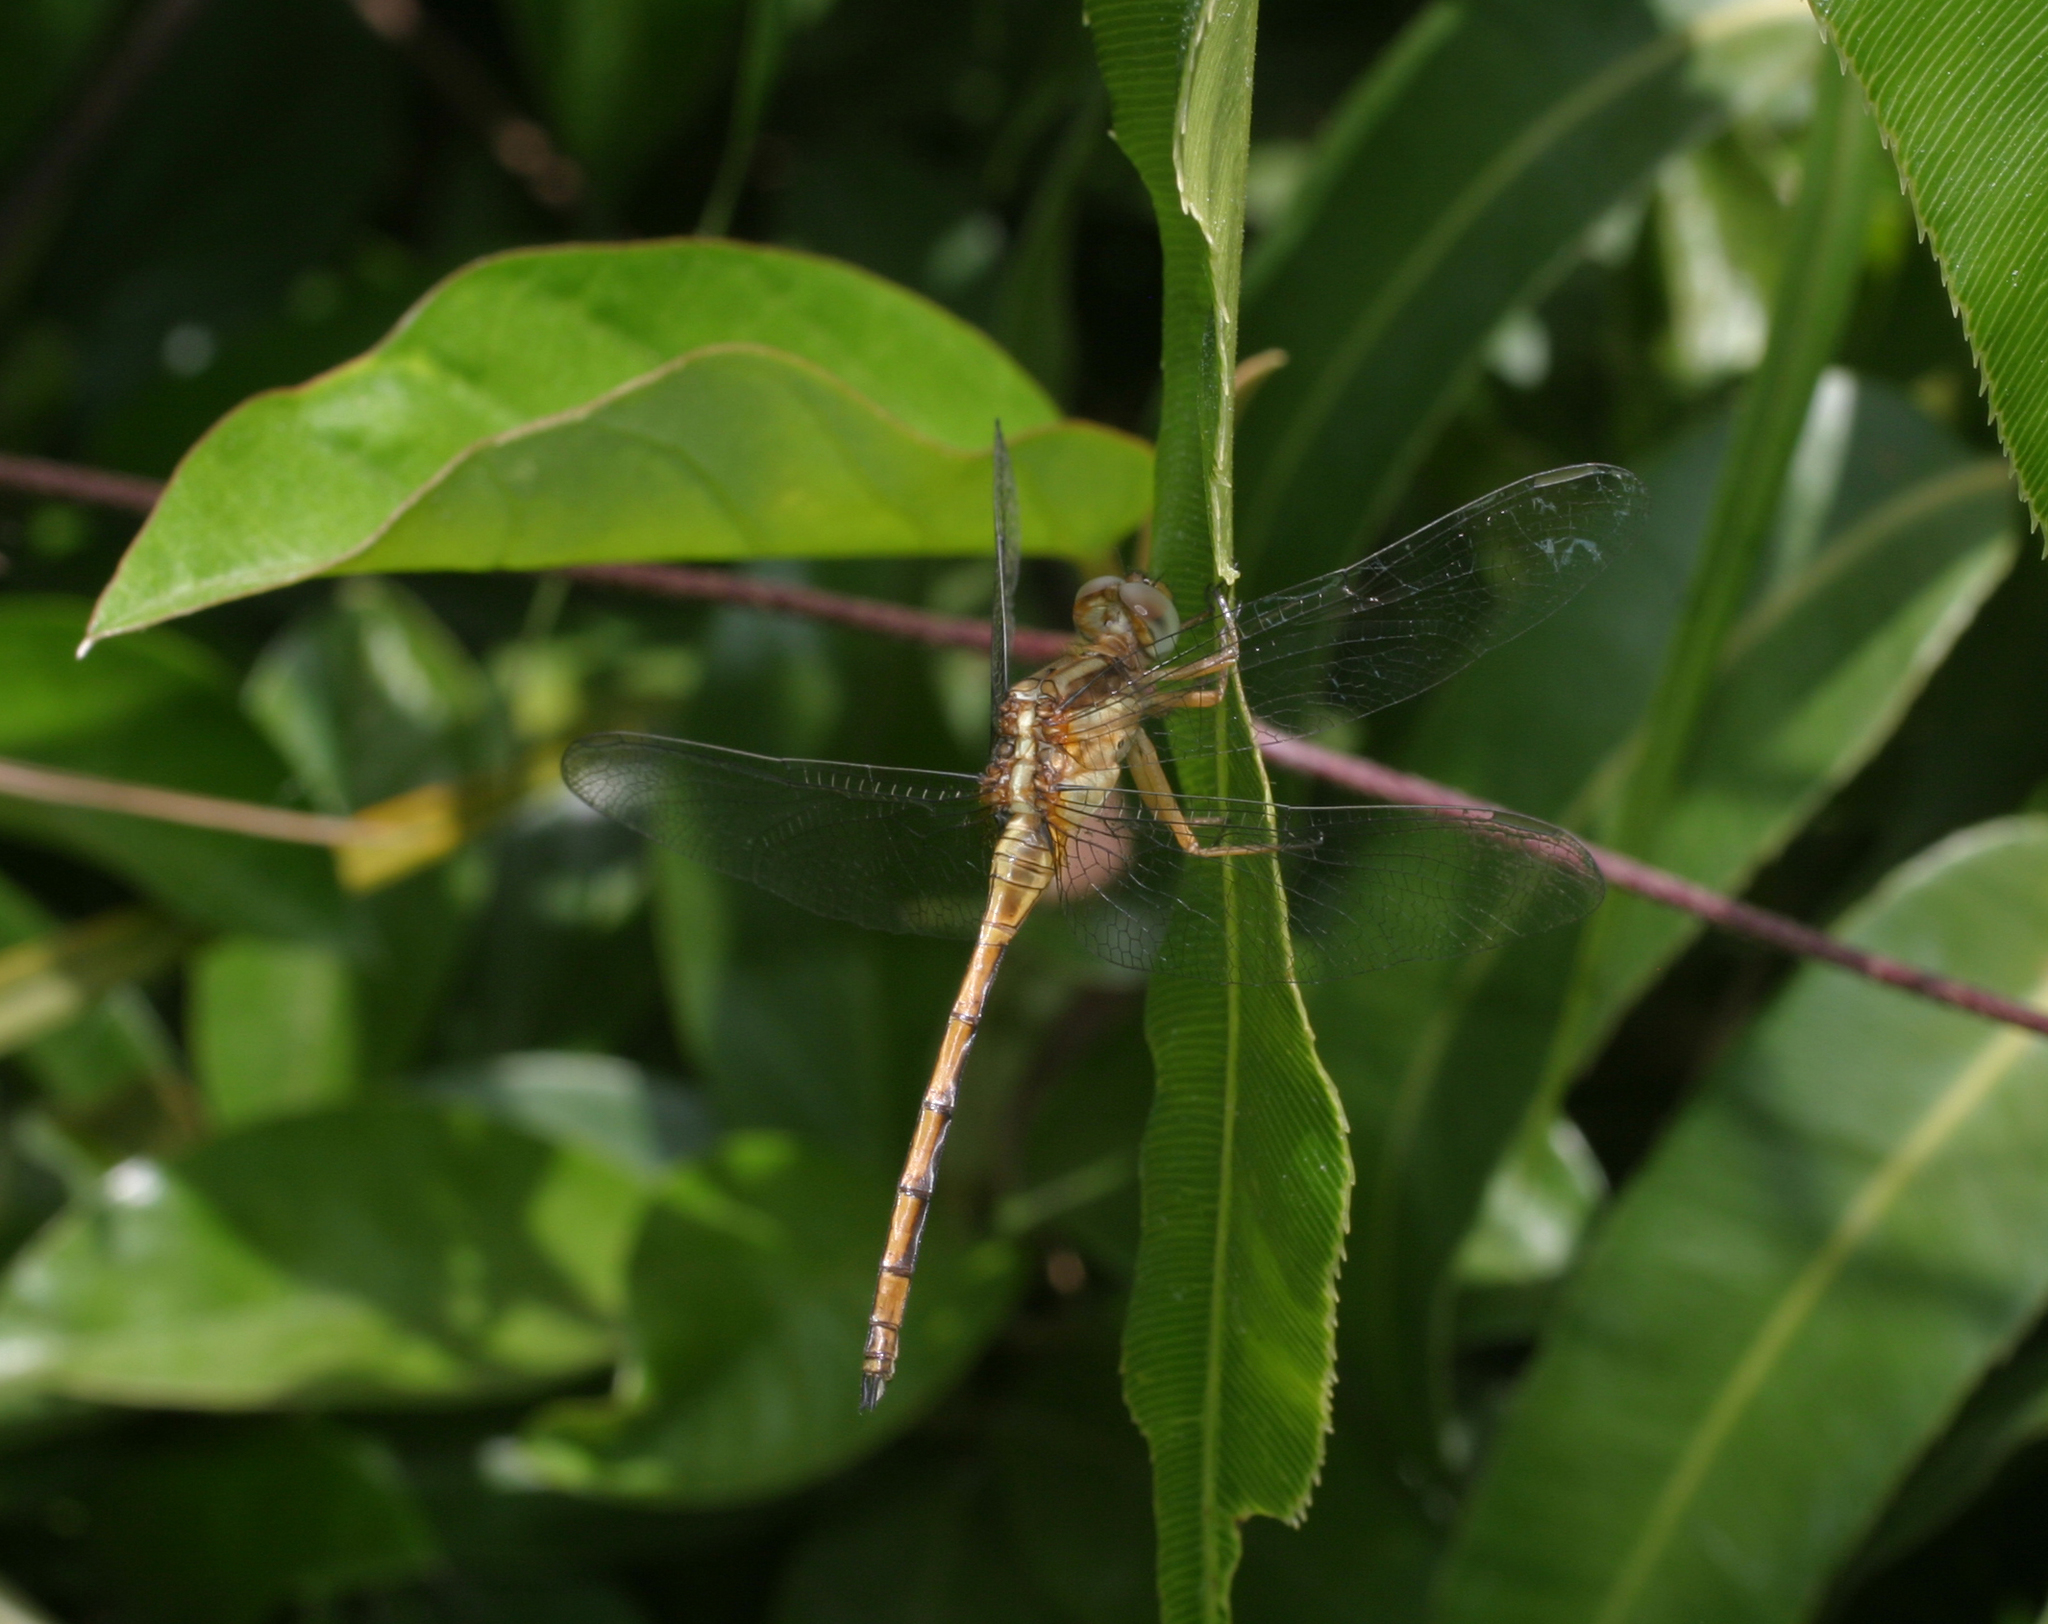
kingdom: Animalia
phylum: Arthropoda
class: Insecta
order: Odonata
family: Libellulidae
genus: Orthetrum
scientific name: Orthetrum luzonicum
